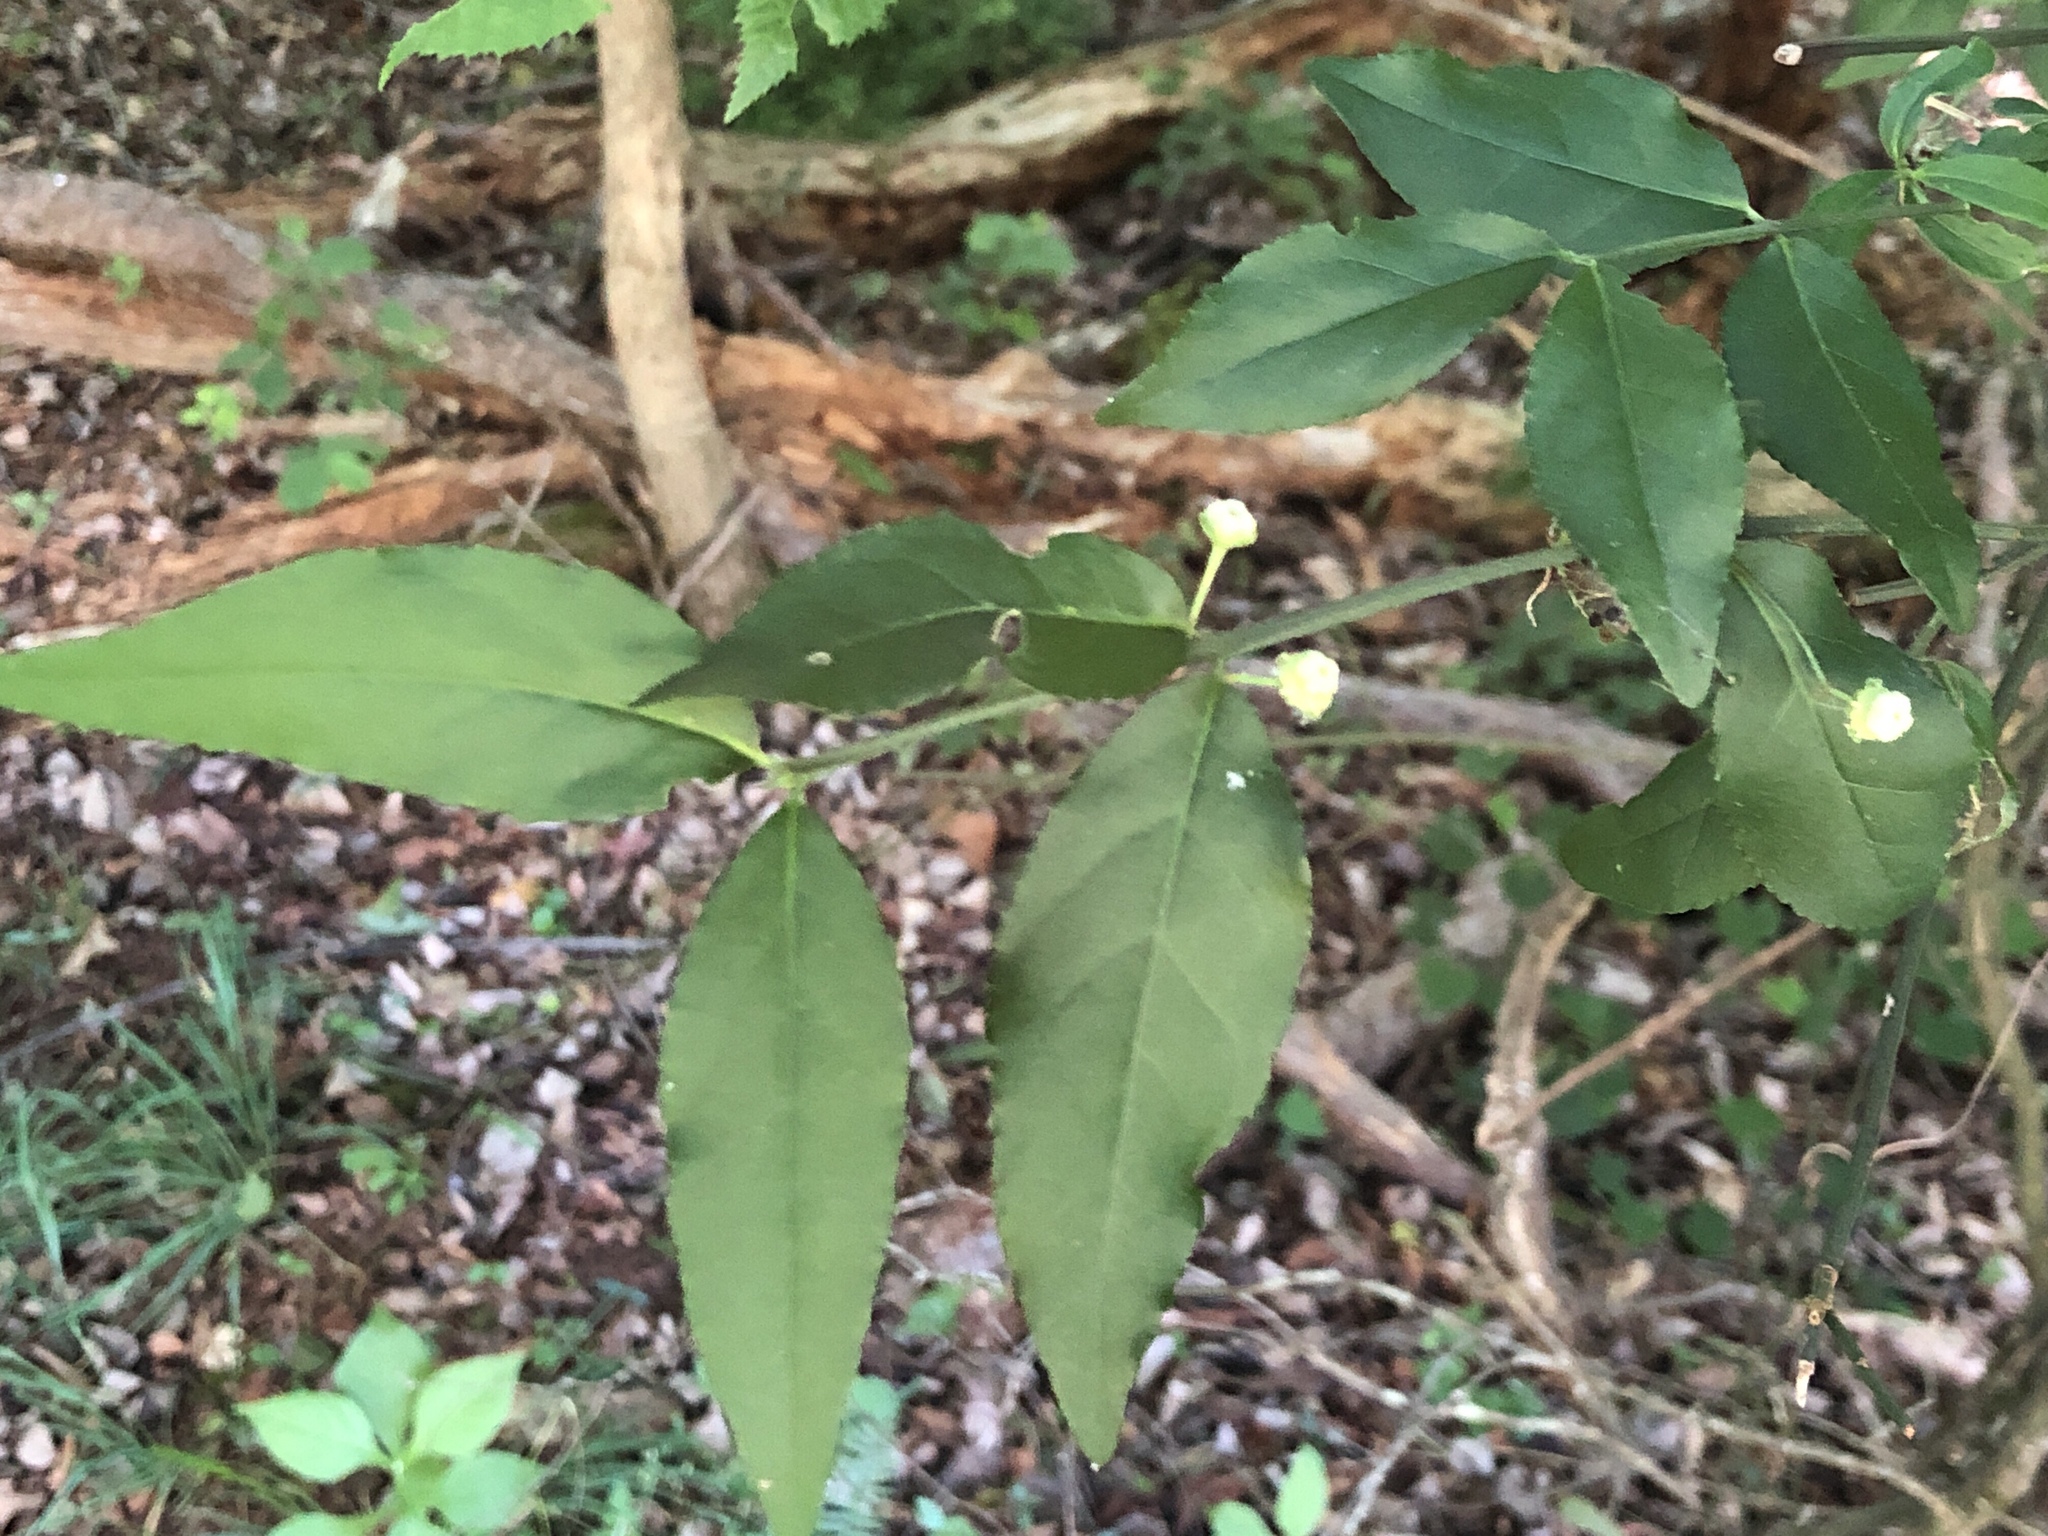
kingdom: Plantae
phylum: Tracheophyta
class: Magnoliopsida
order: Celastrales
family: Celastraceae
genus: Euonymus
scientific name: Euonymus americanus
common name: Bursting-heart
